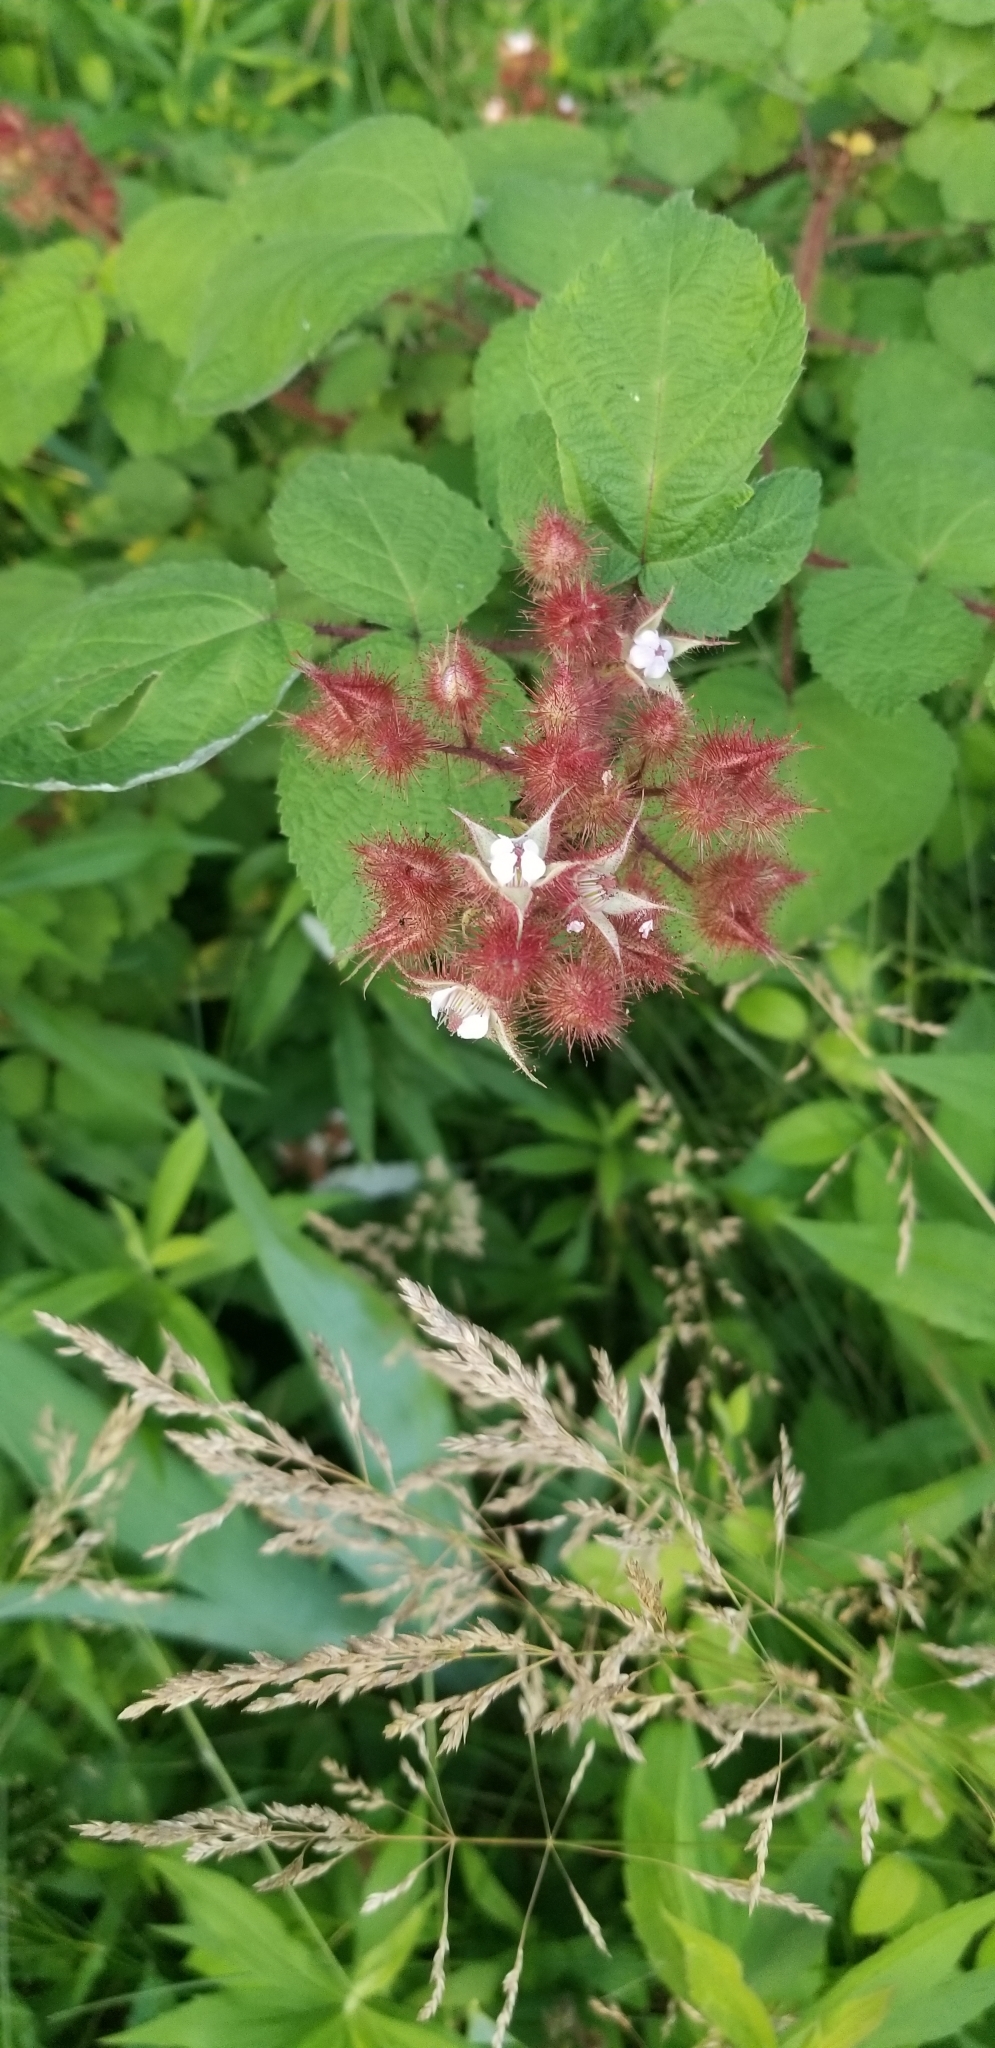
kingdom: Plantae
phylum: Tracheophyta
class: Magnoliopsida
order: Rosales
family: Rosaceae
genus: Rubus
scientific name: Rubus phoenicolasius
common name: Japanese wineberry
